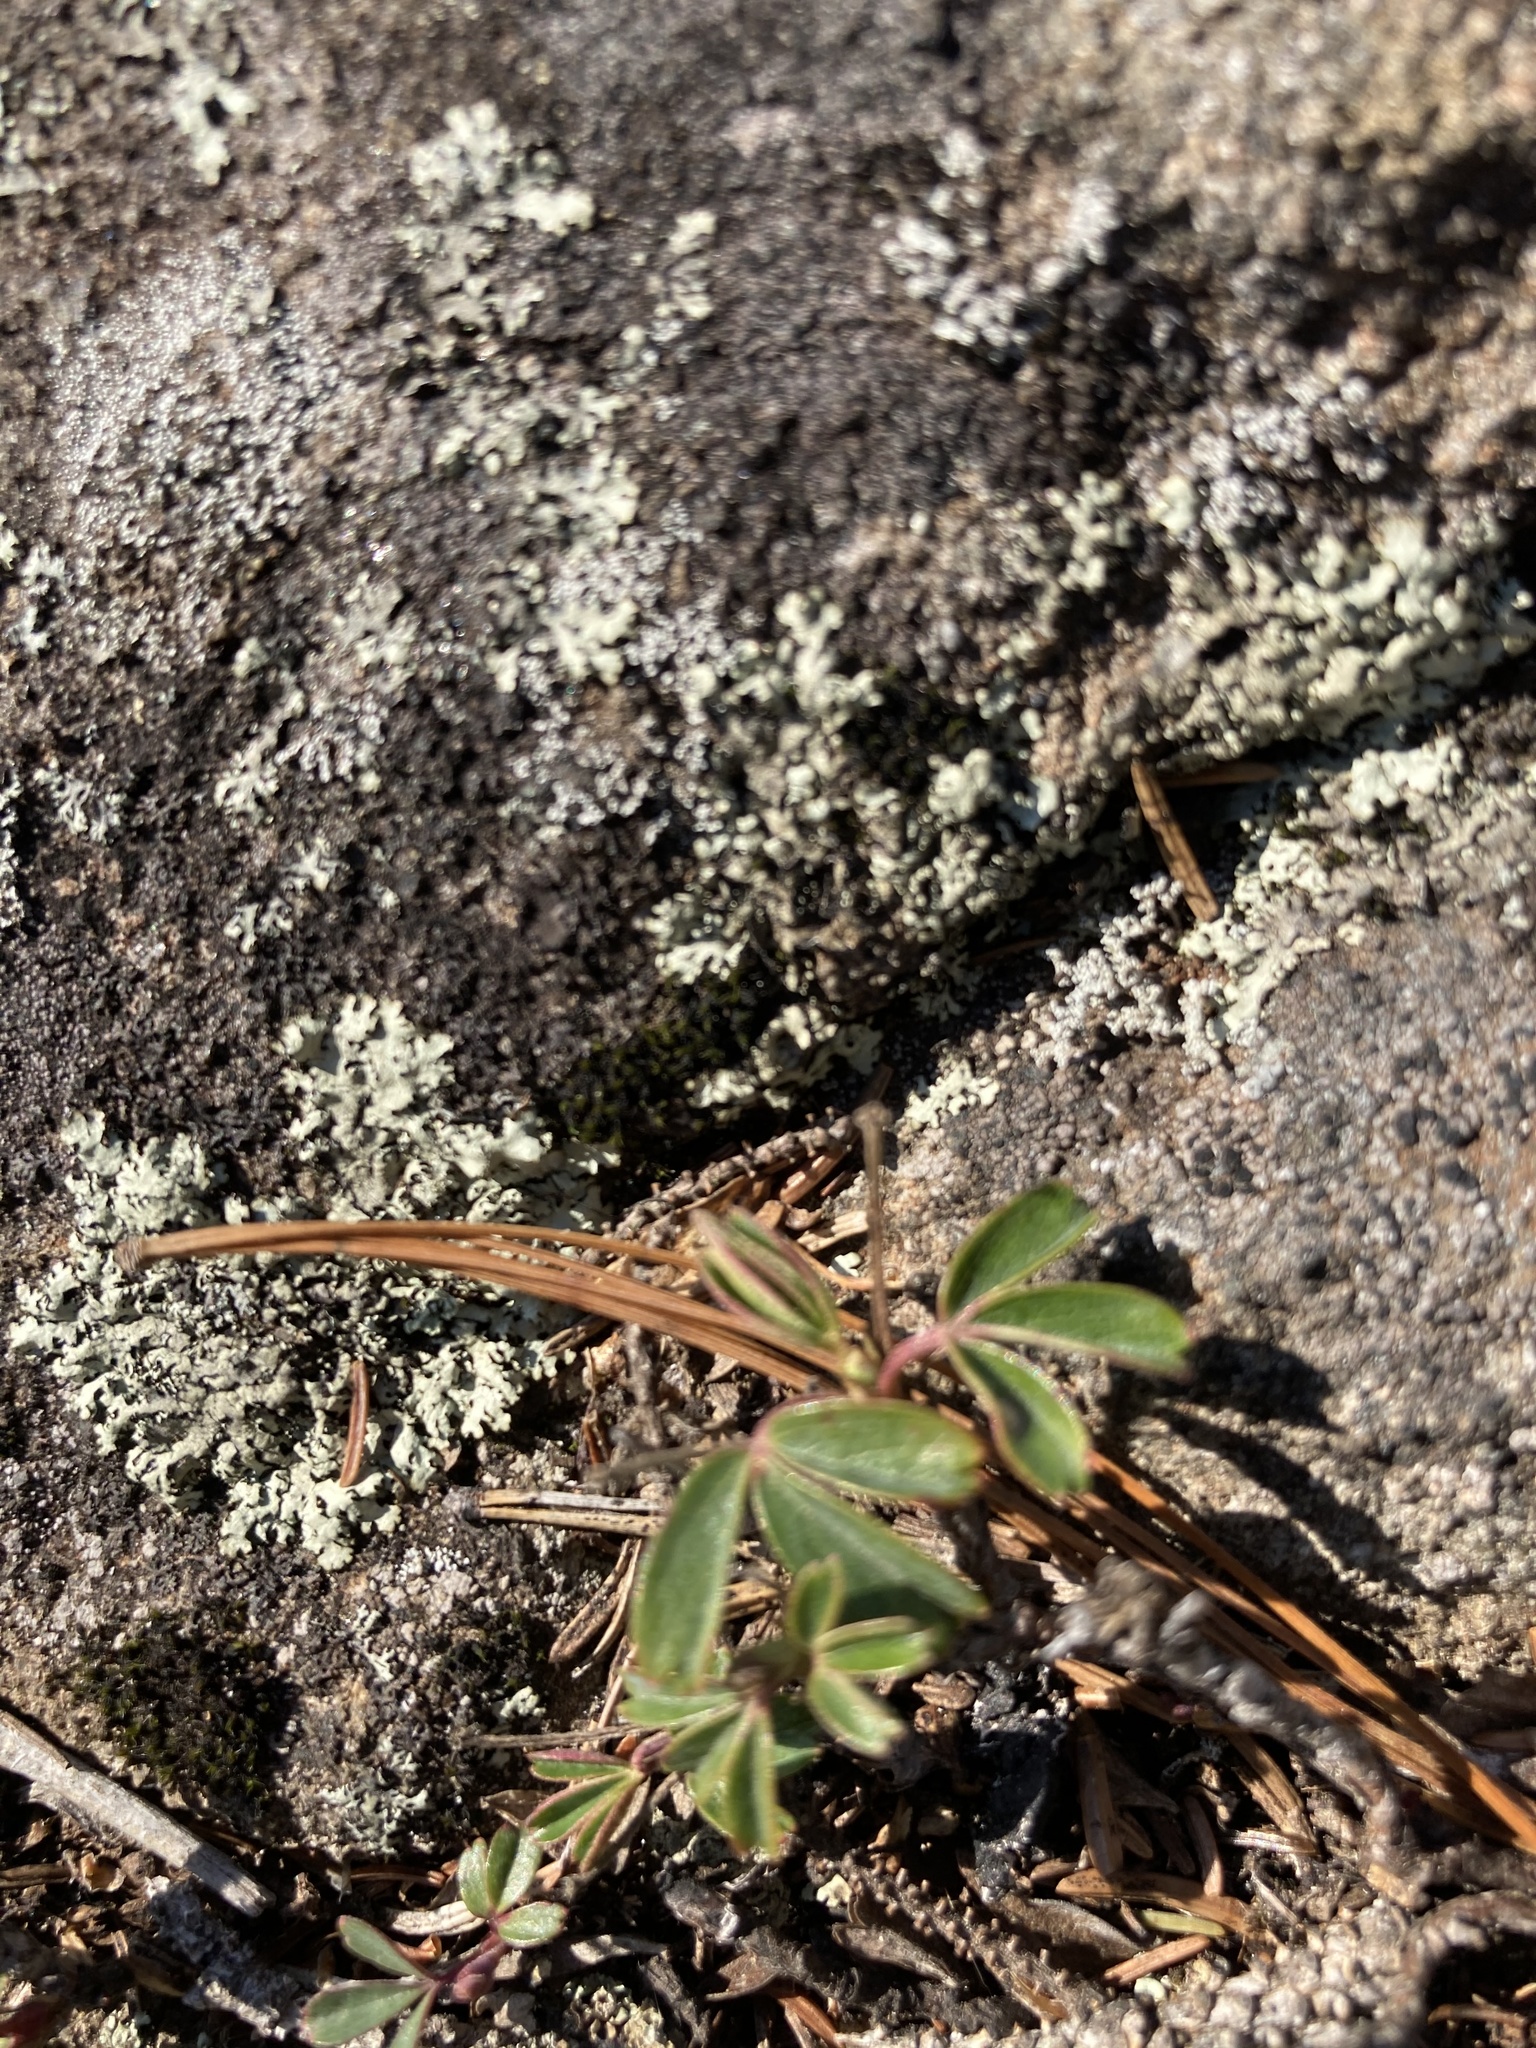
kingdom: Plantae
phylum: Tracheophyta
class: Magnoliopsida
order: Rosales
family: Rosaceae
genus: Sibbaldia
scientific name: Sibbaldia tridentata
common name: Three-toothed cinquefoil
